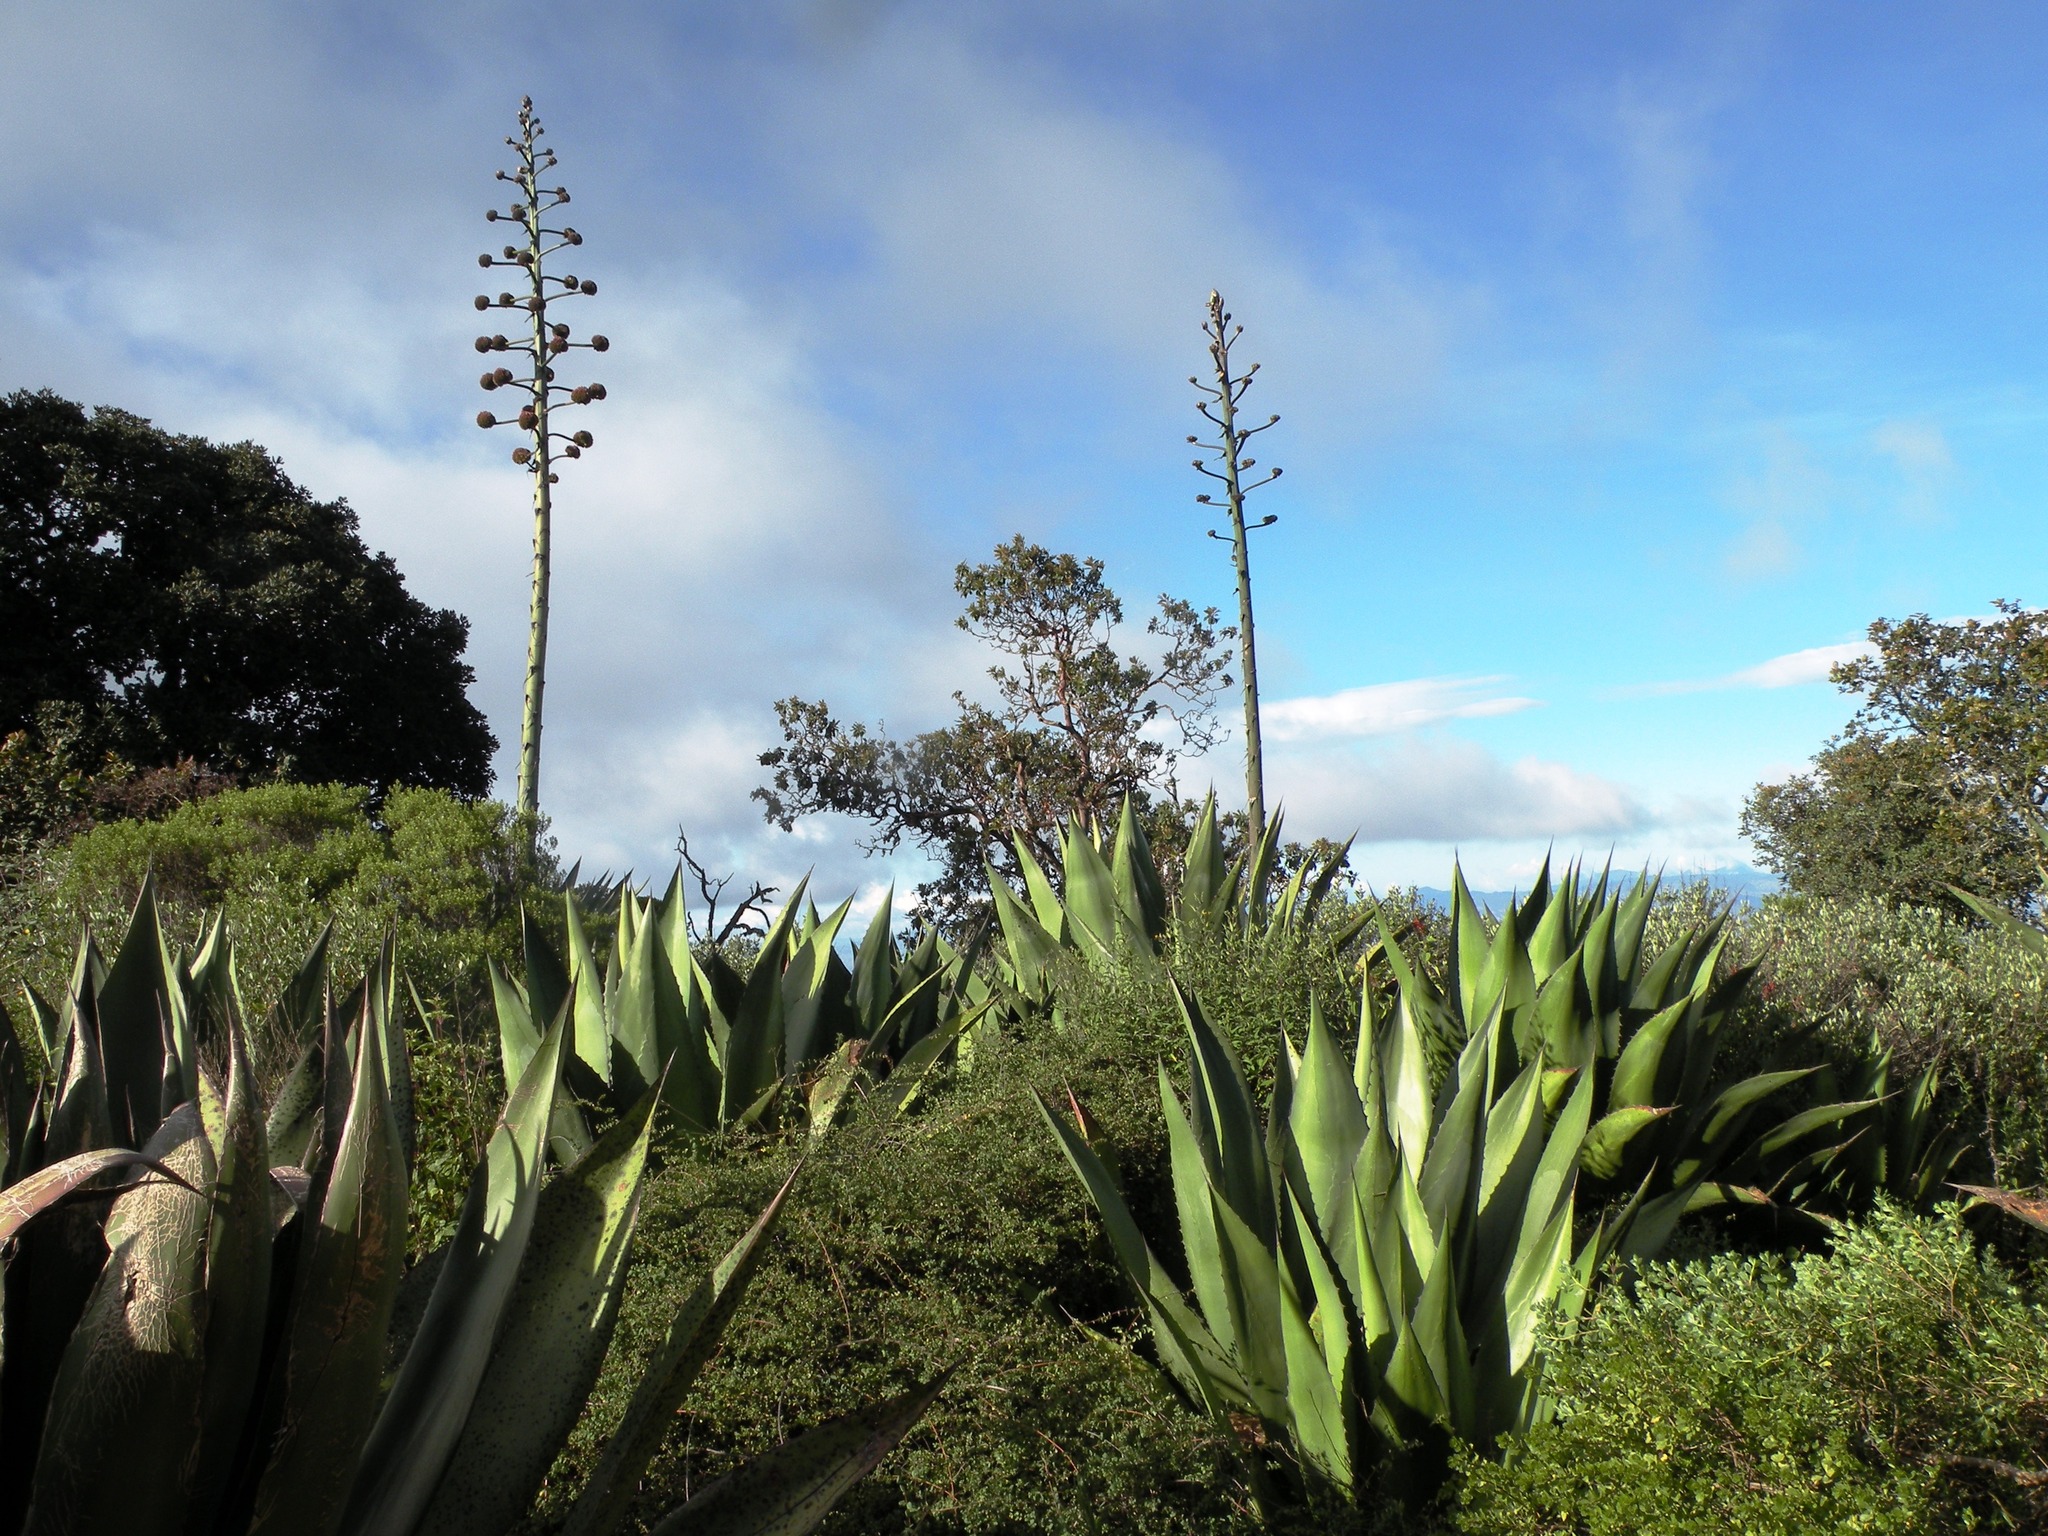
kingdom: Plantae
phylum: Tracheophyta
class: Liliopsida
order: Asparagales
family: Asparagaceae
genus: Agave
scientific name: Agave atrovirens
